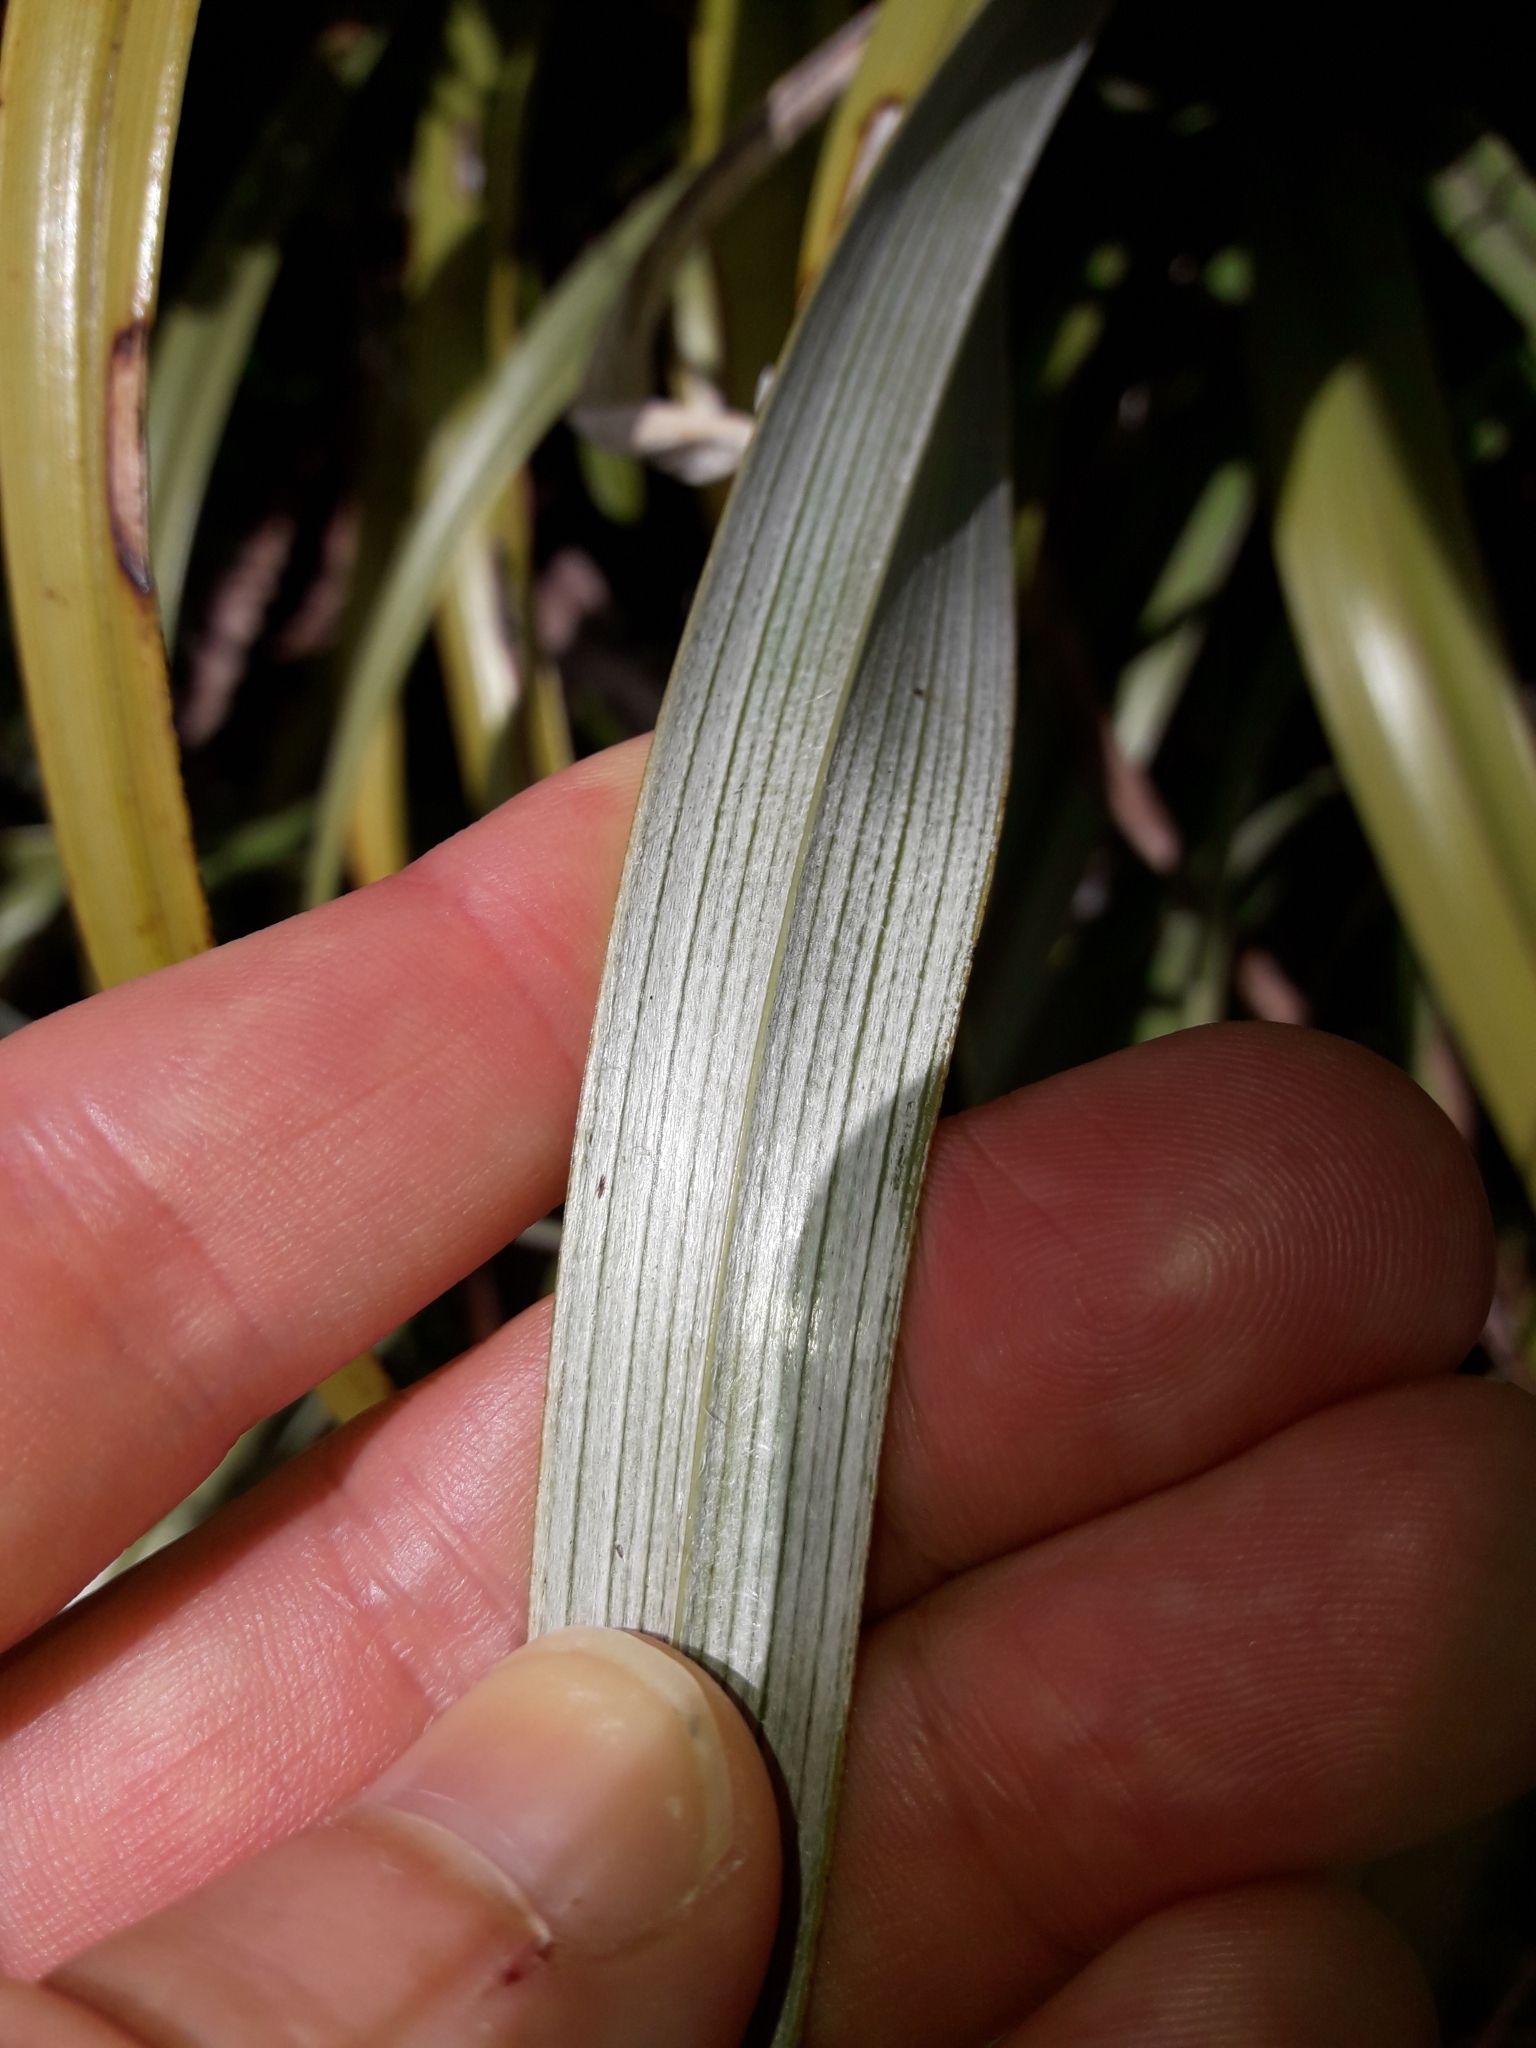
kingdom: Plantae
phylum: Tracheophyta
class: Liliopsida
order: Asparagales
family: Asteliaceae
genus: Astelia
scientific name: Astelia petriei
